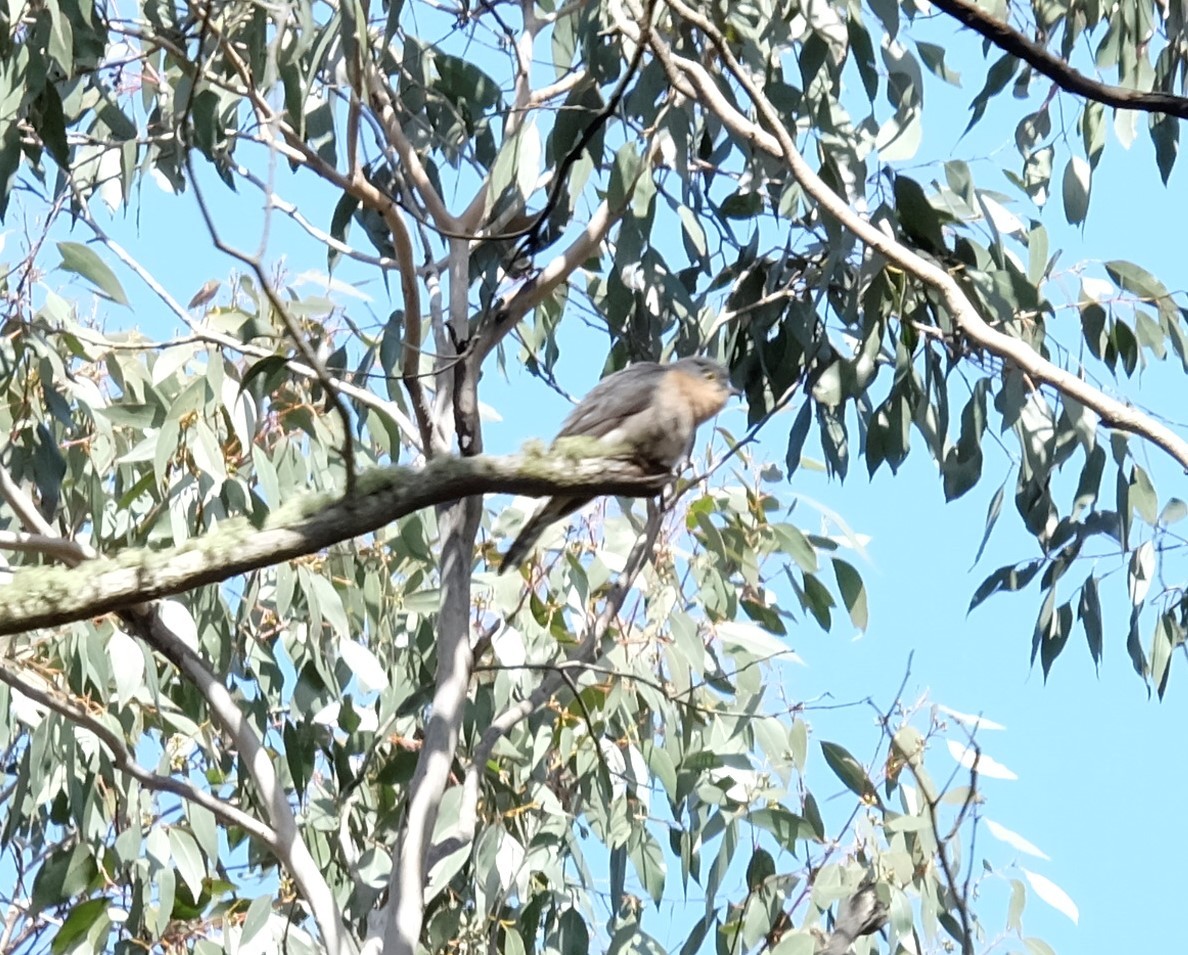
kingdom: Animalia
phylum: Chordata
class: Aves
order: Cuculiformes
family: Cuculidae
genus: Cacomantis
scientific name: Cacomantis flabelliformis
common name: Fan-tailed cuckoo
